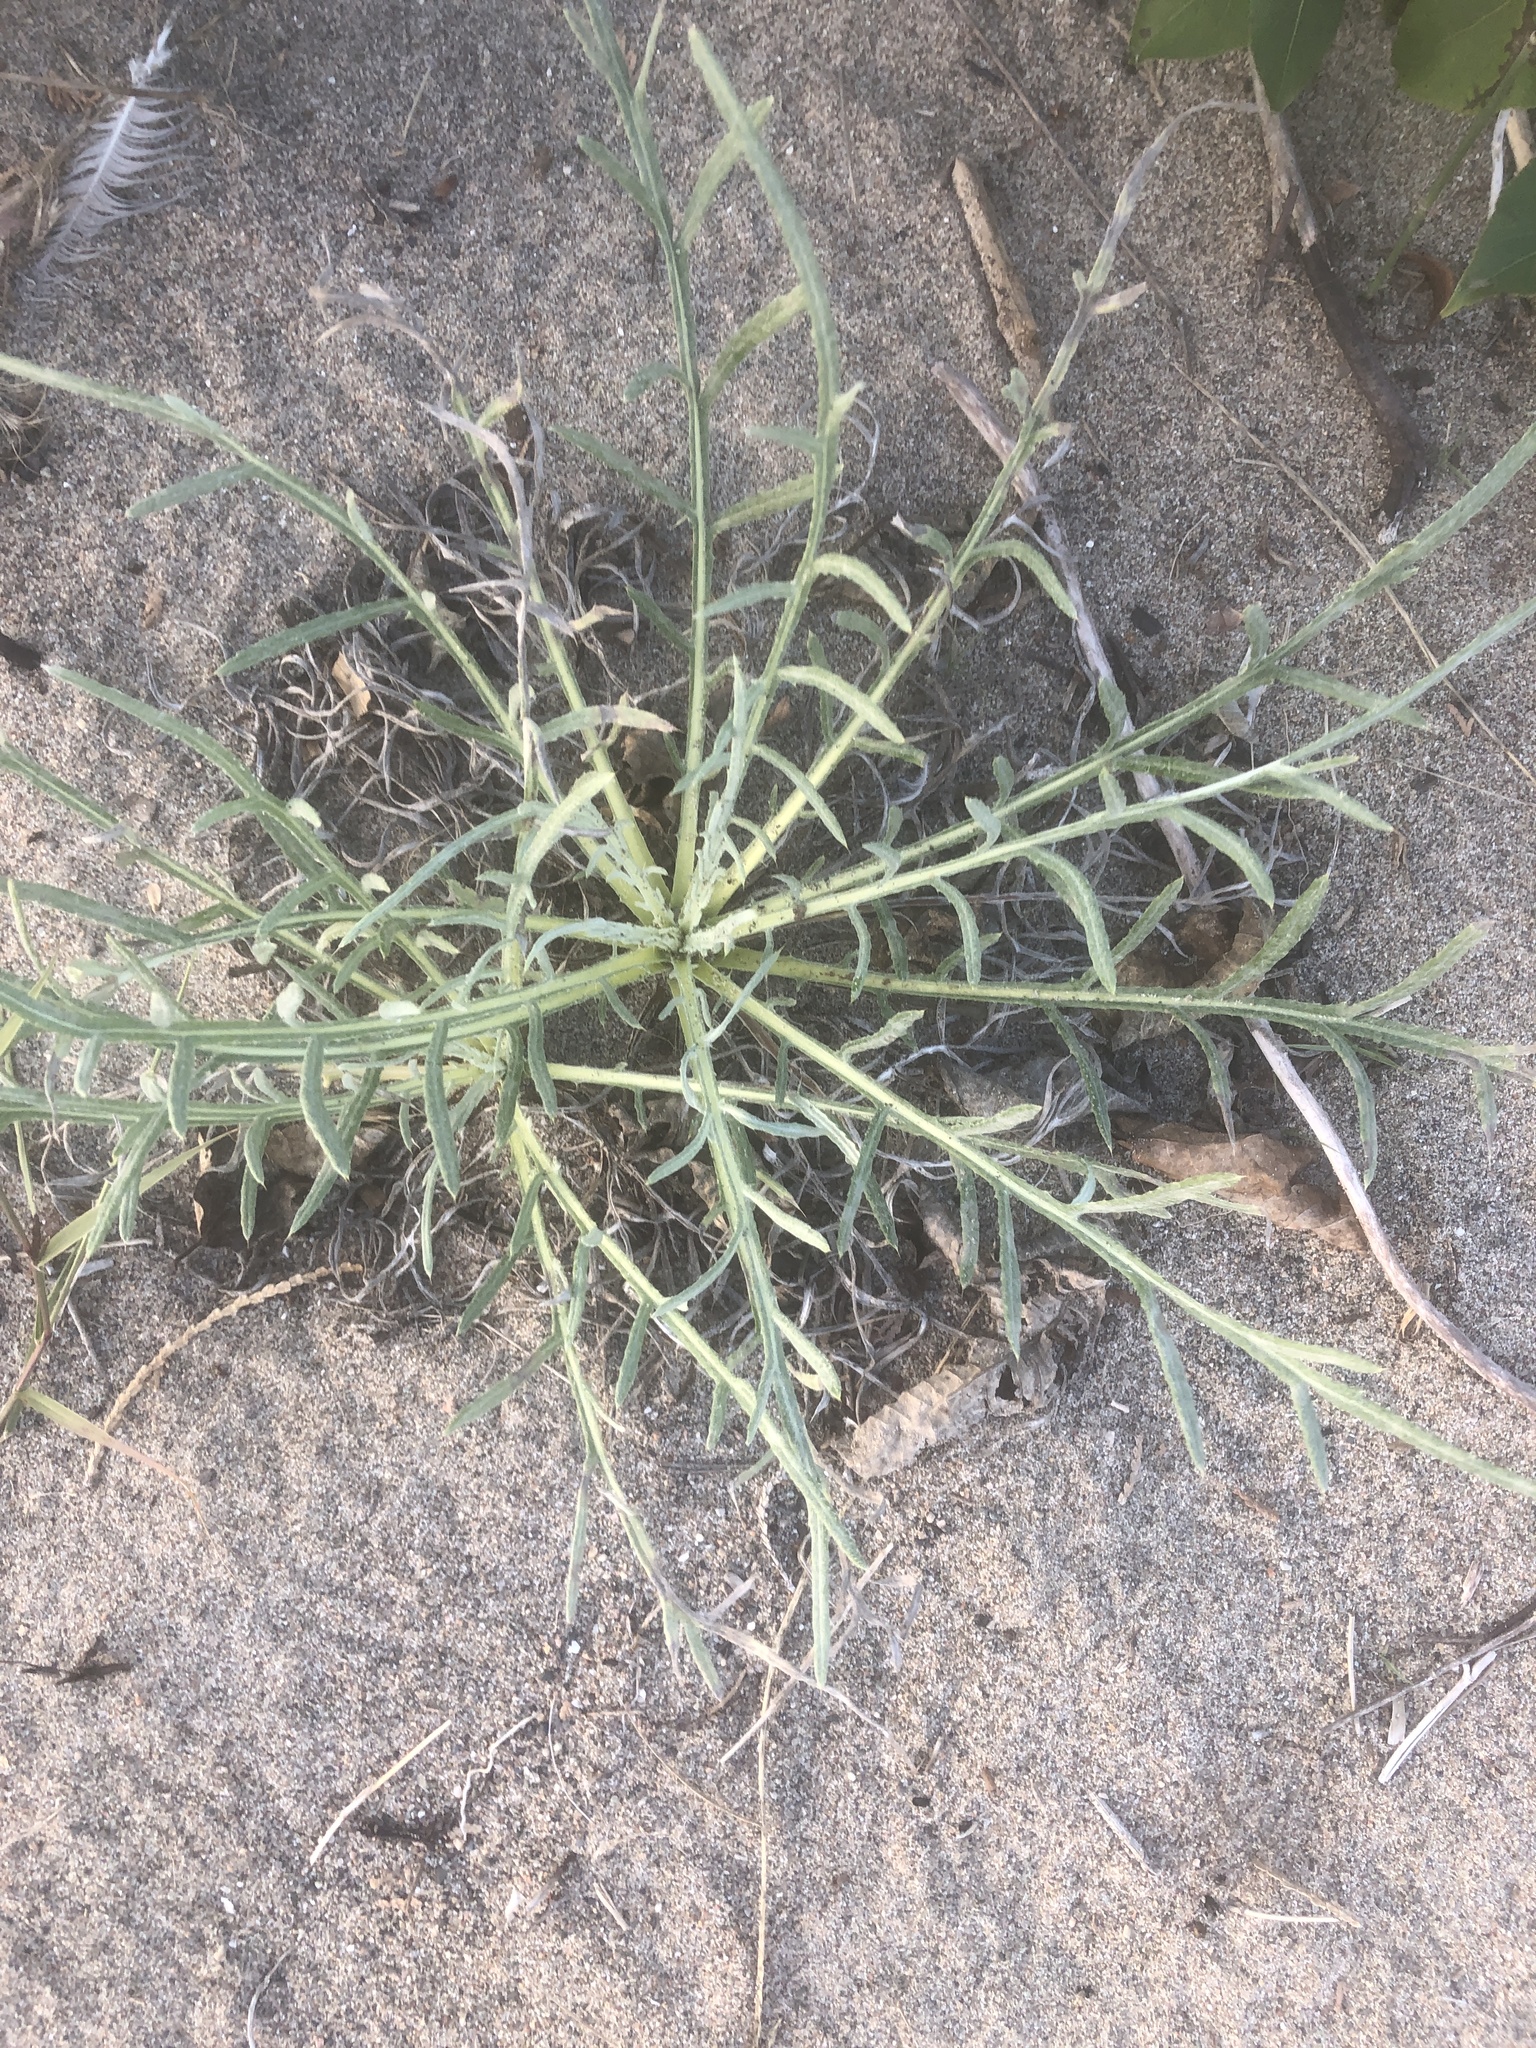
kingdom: Plantae
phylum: Tracheophyta
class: Magnoliopsida
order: Asterales
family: Asteraceae
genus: Cirsium
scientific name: Cirsium pitcheri
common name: Dune thistle
